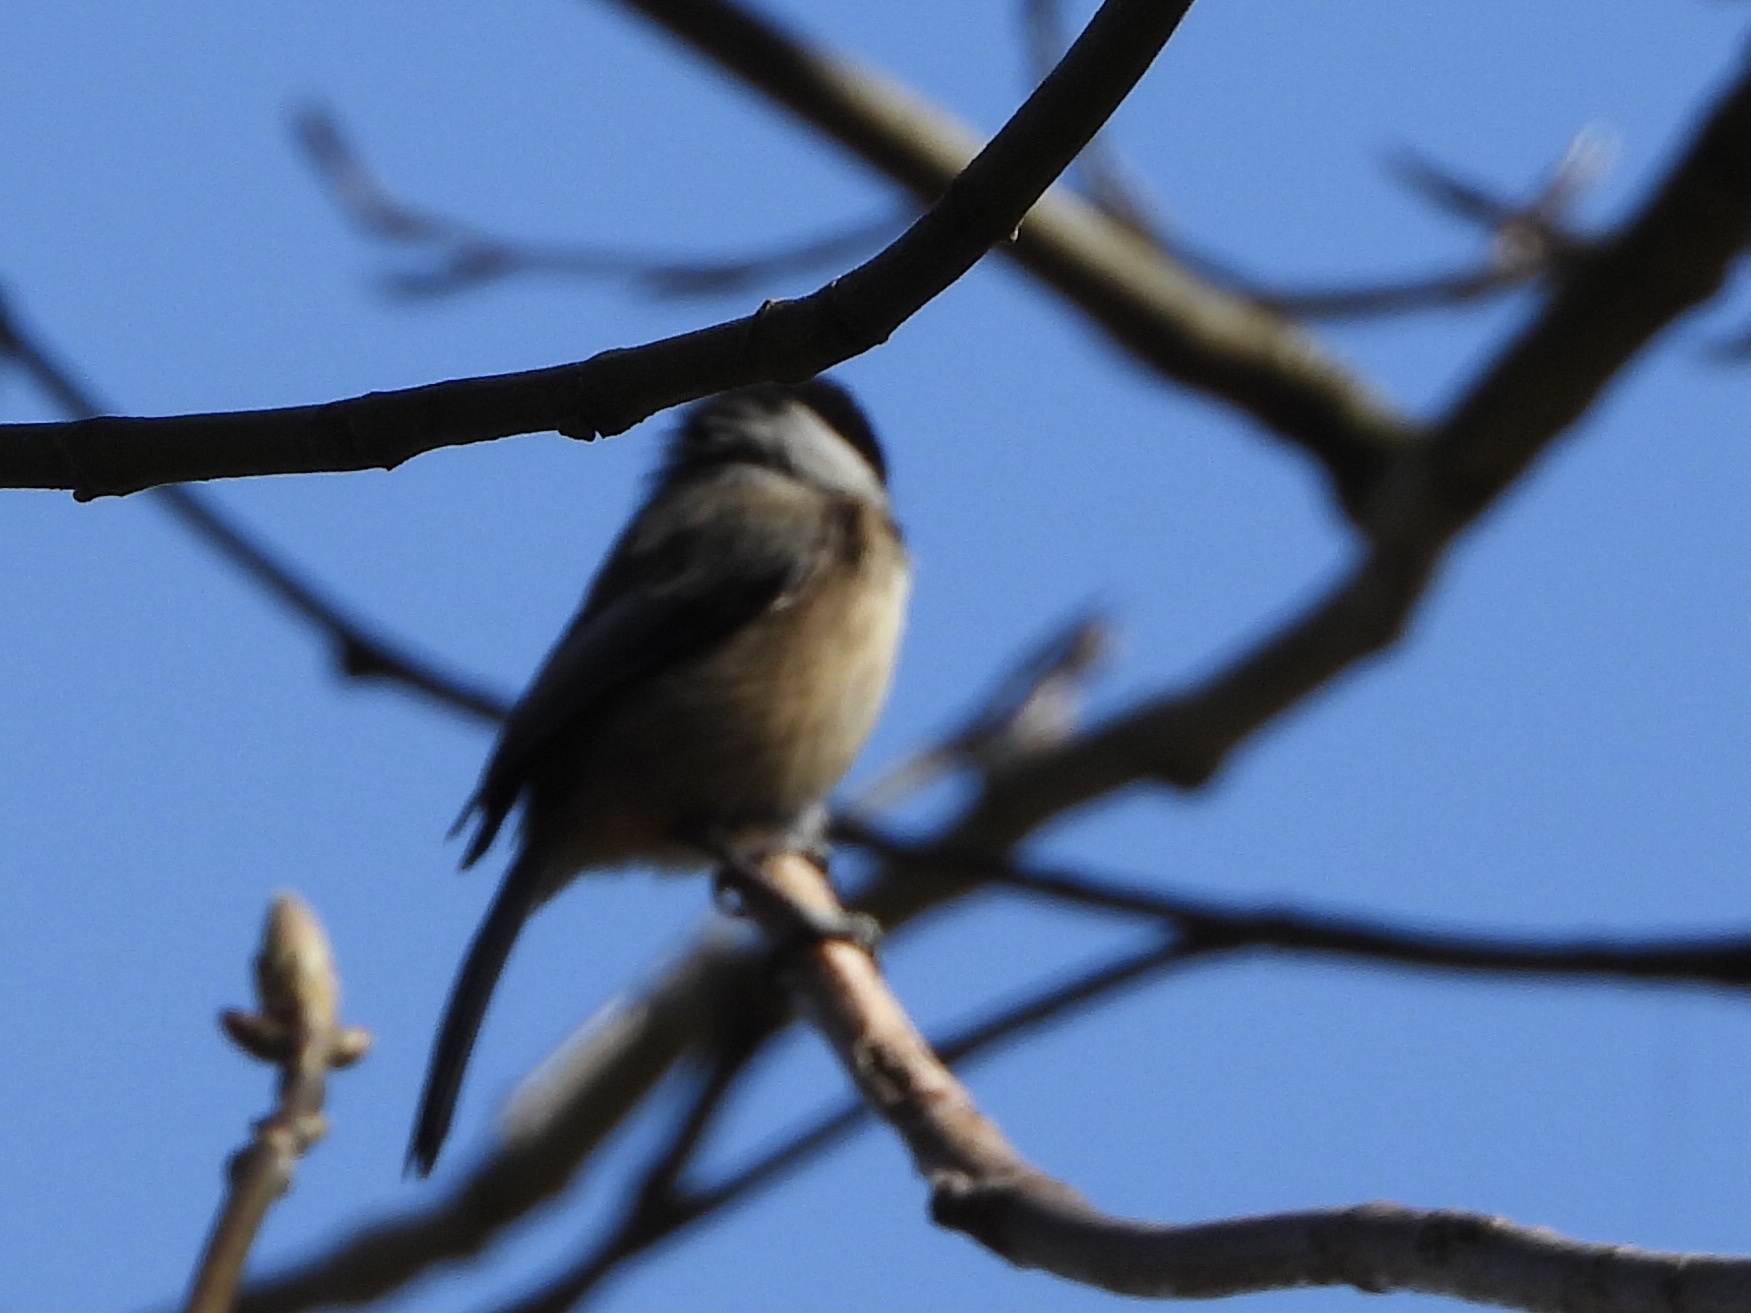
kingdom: Animalia
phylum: Chordata
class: Aves
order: Passeriformes
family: Paridae
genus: Poecile
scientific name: Poecile atricapillus
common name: Black-capped chickadee
